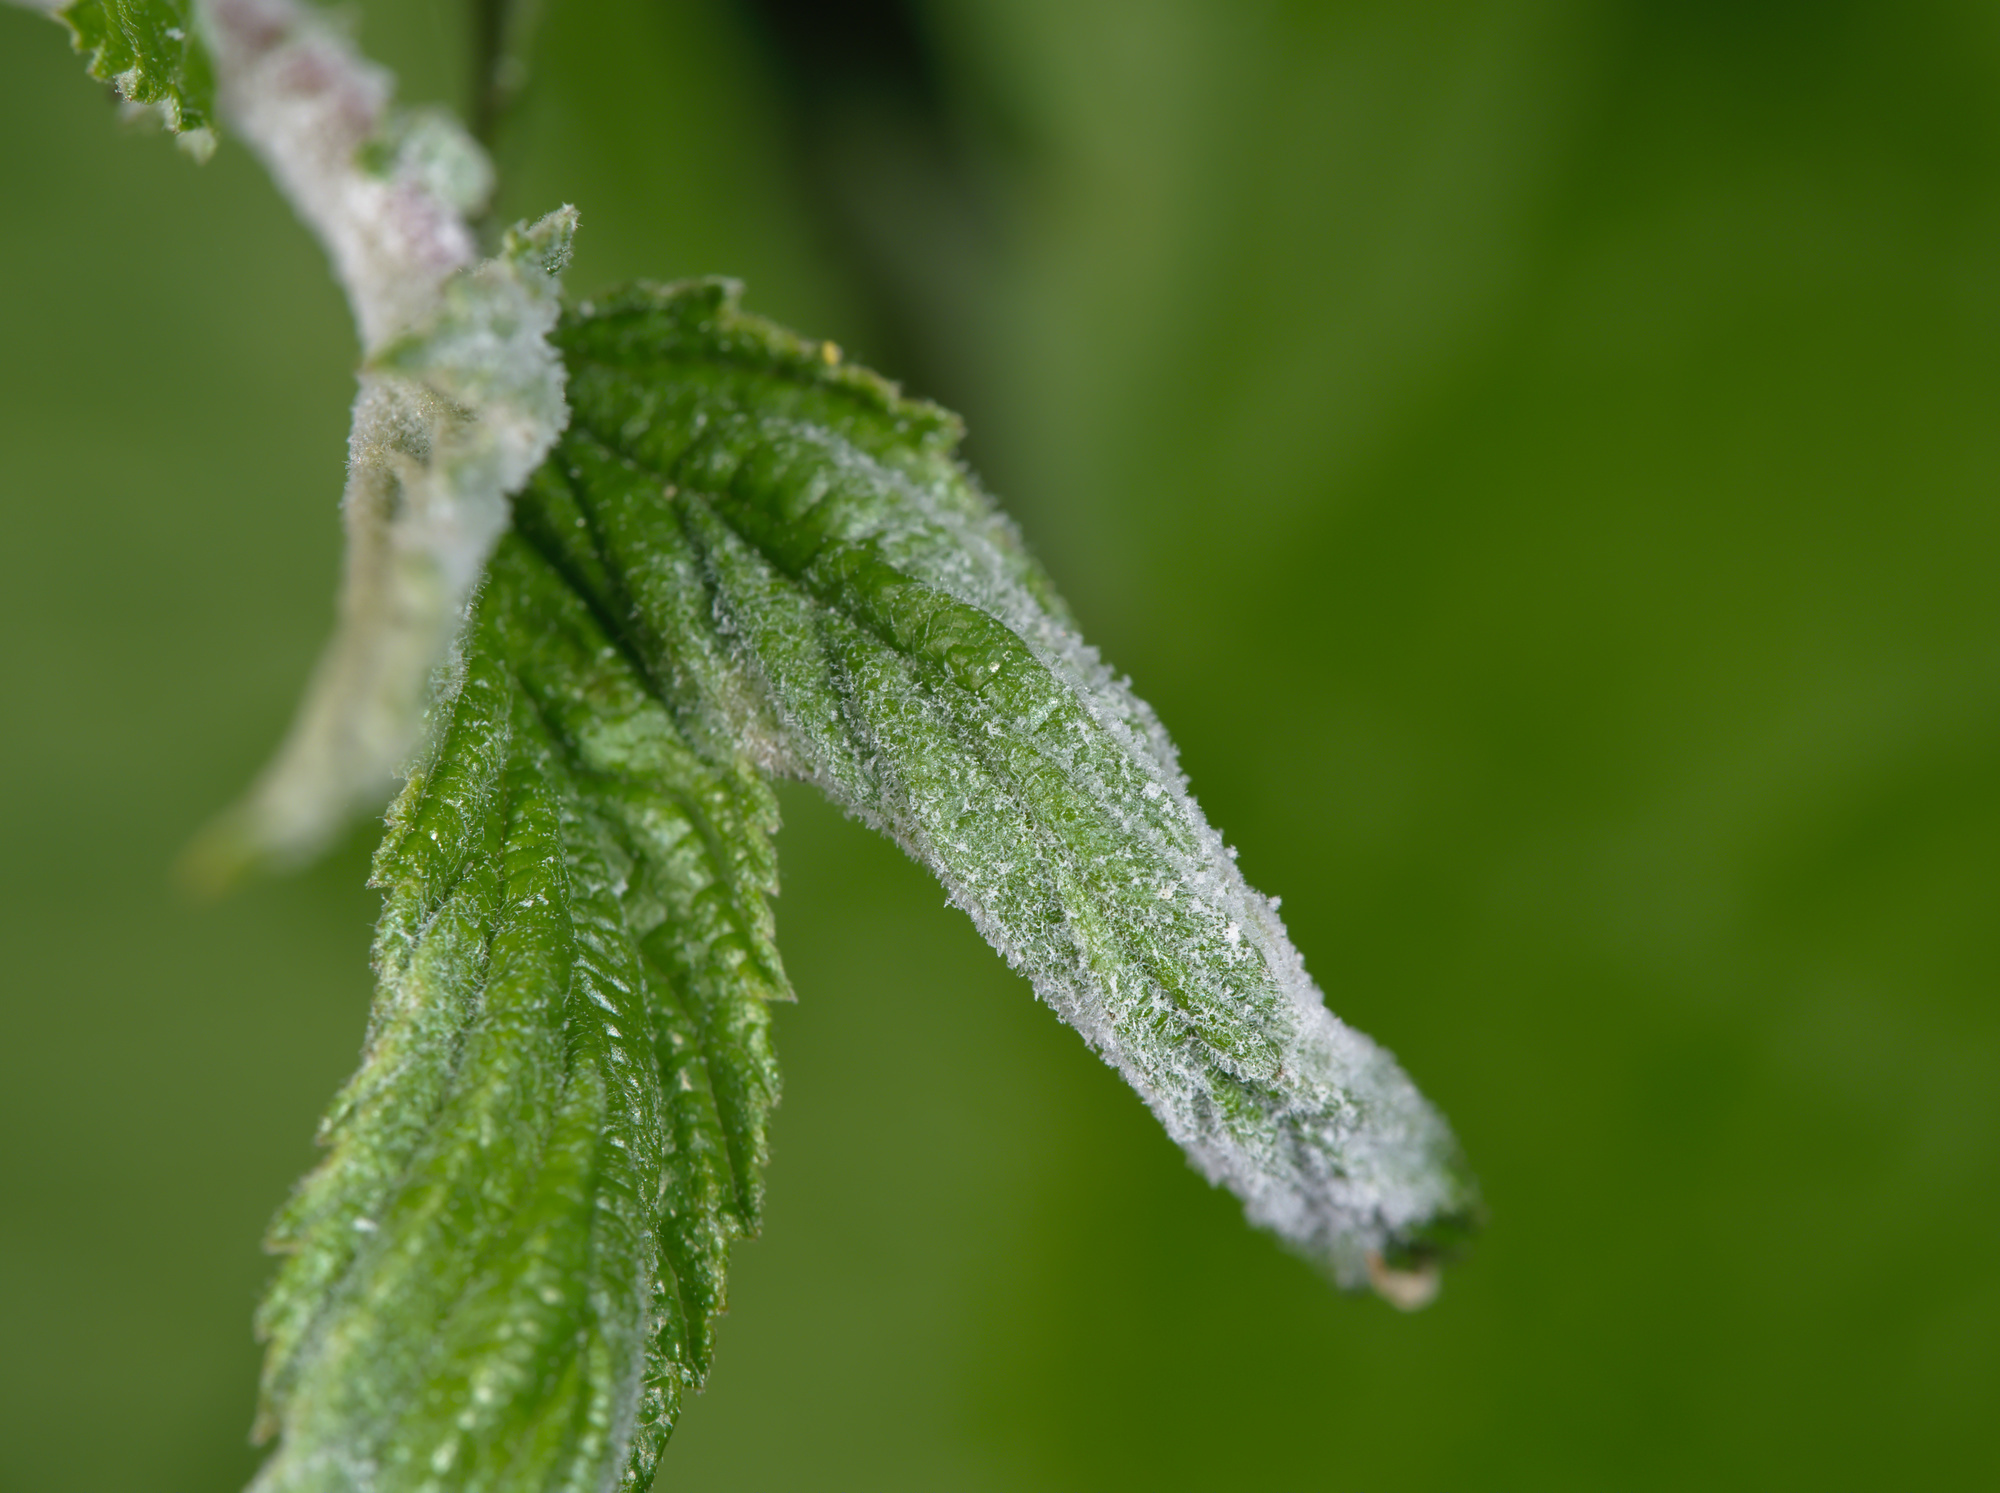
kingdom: Fungi
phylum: Ascomycota
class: Leotiomycetes
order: Helotiales
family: Erysiphaceae
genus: Podosphaera
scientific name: Podosphaera filipendulae
